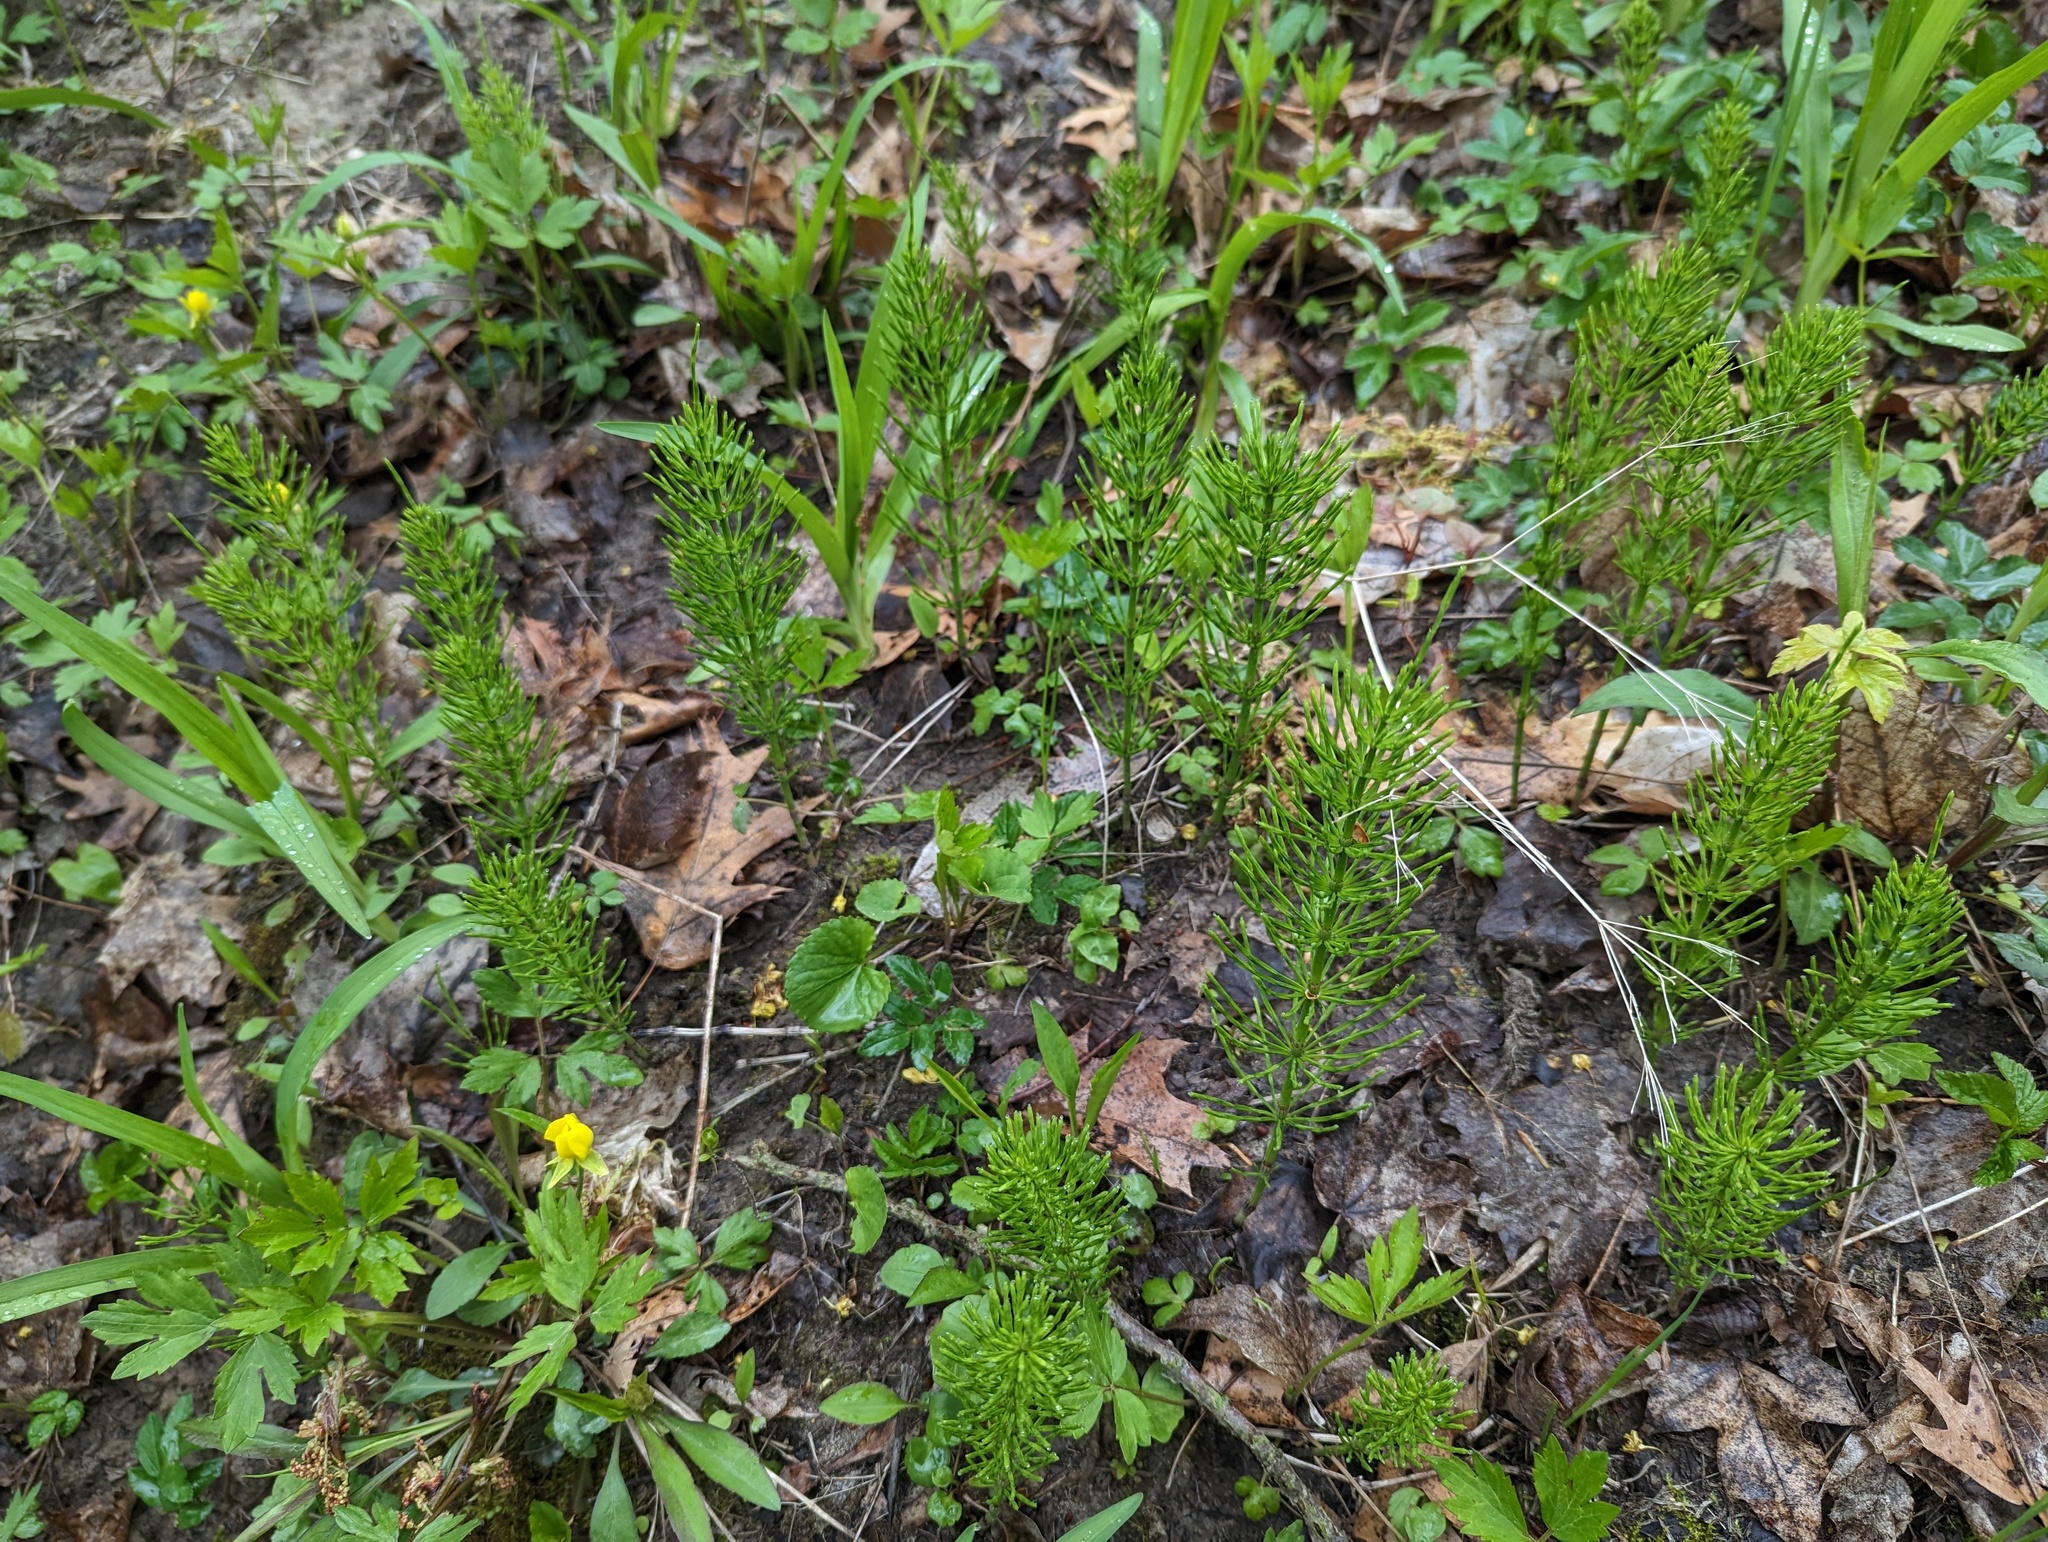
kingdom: Plantae
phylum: Tracheophyta
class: Polypodiopsida
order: Equisetales
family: Equisetaceae
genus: Equisetum
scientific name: Equisetum arvense
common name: Field horsetail
